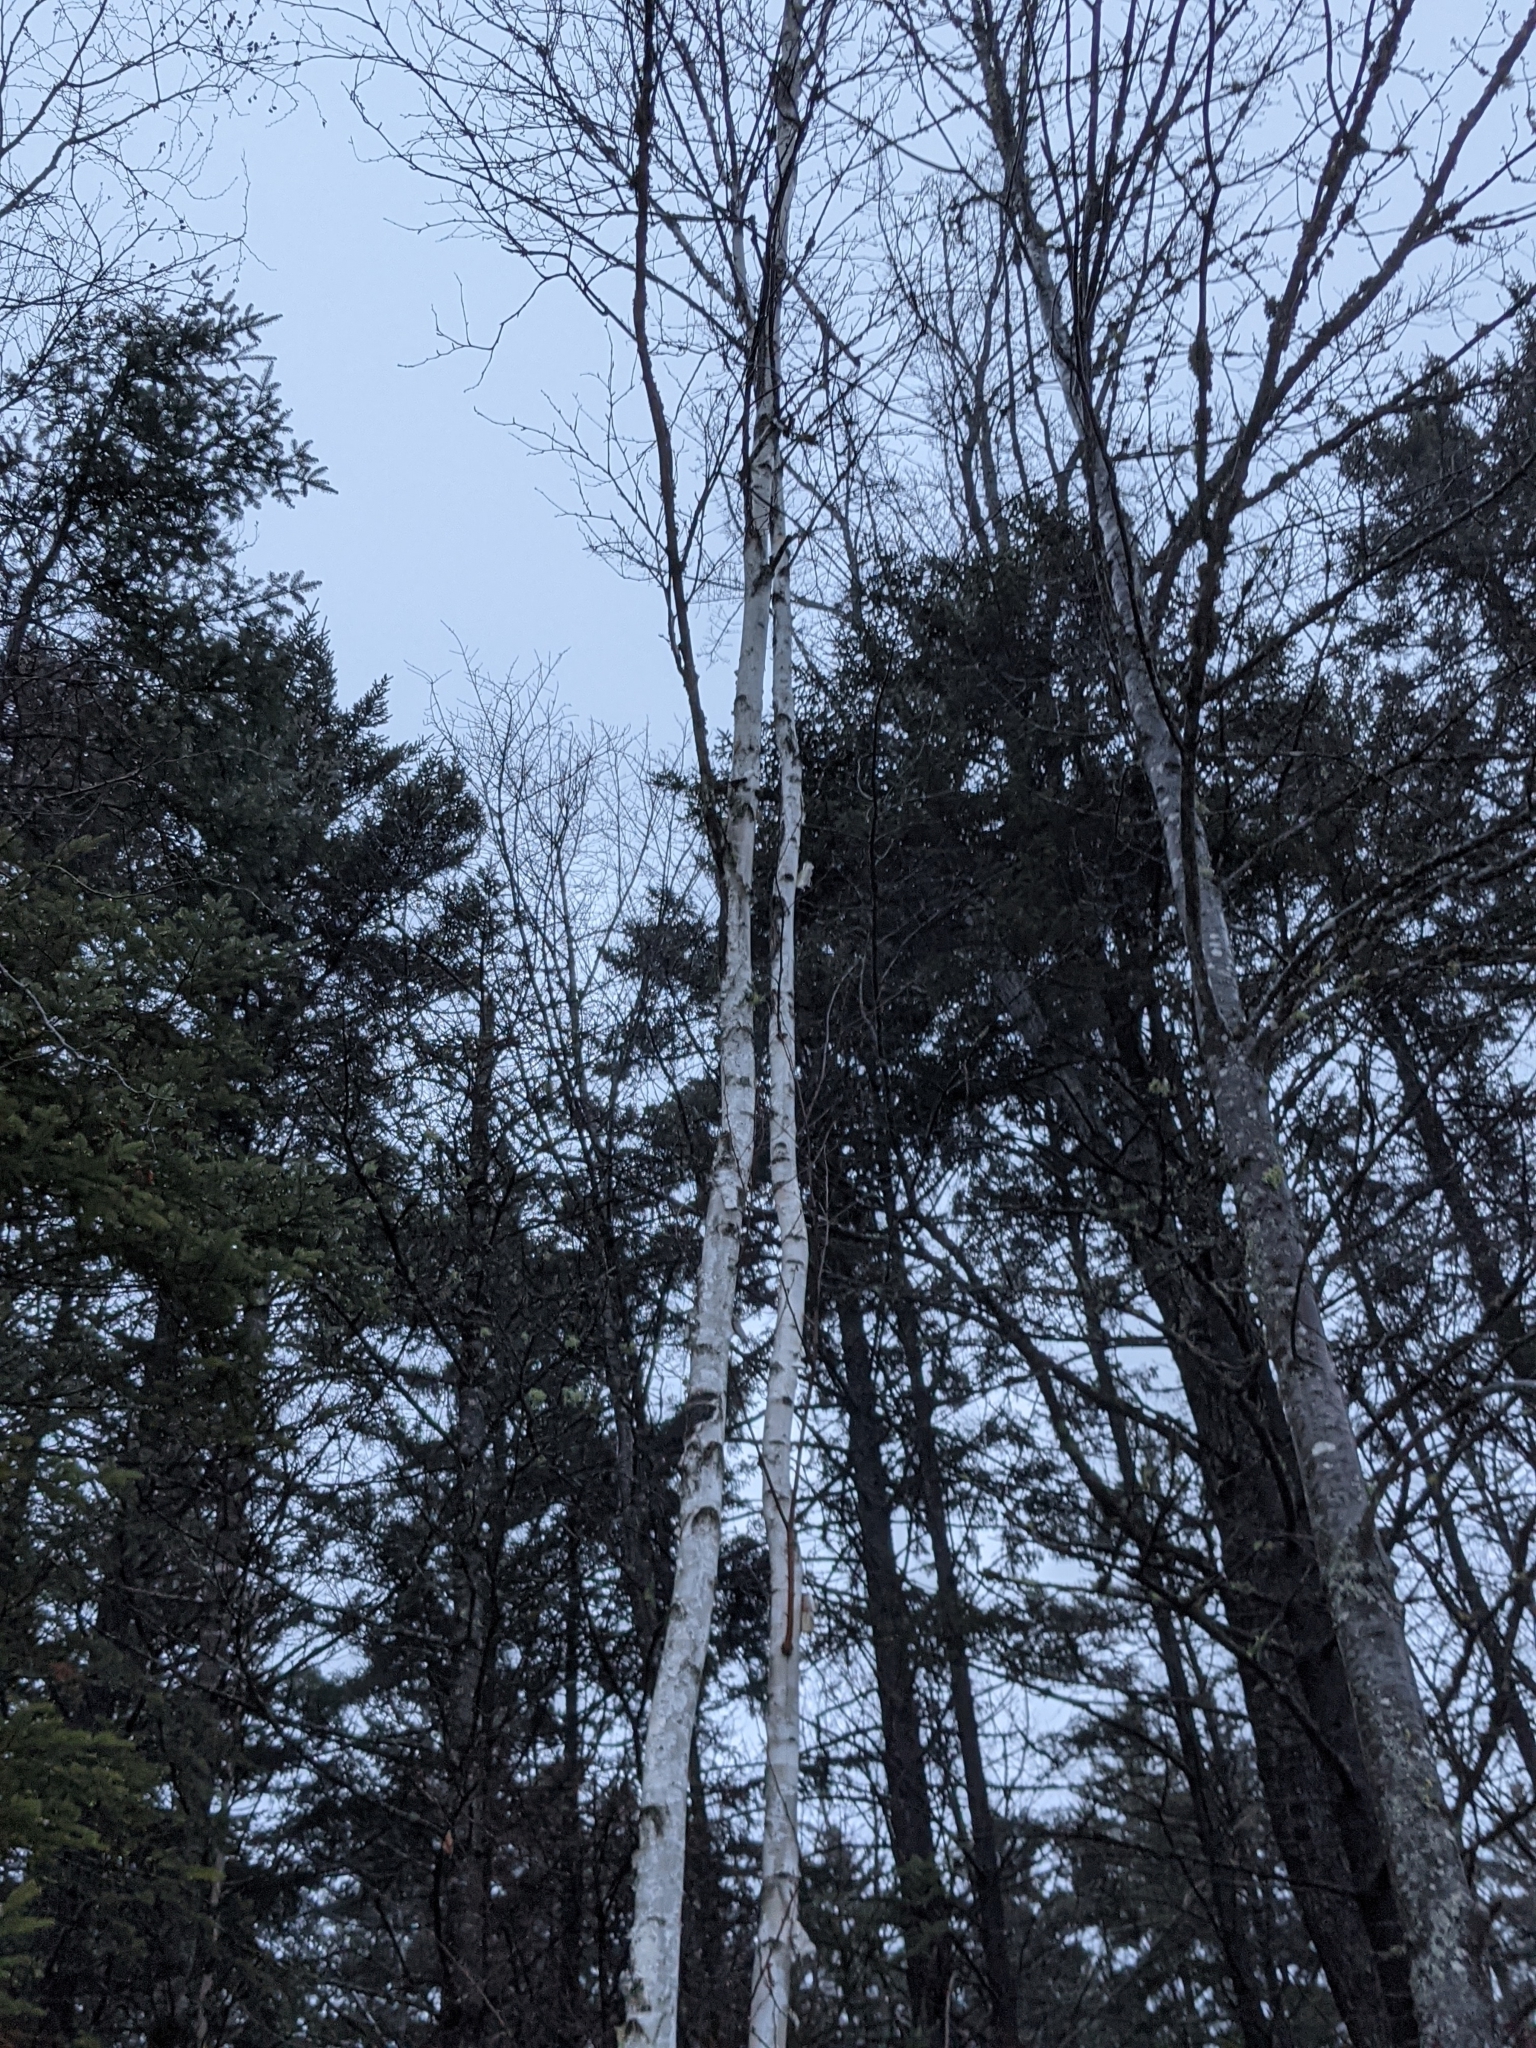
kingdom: Plantae
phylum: Tracheophyta
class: Magnoliopsida
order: Fagales
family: Betulaceae
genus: Betula
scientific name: Betula papyrifera
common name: Paper birch
